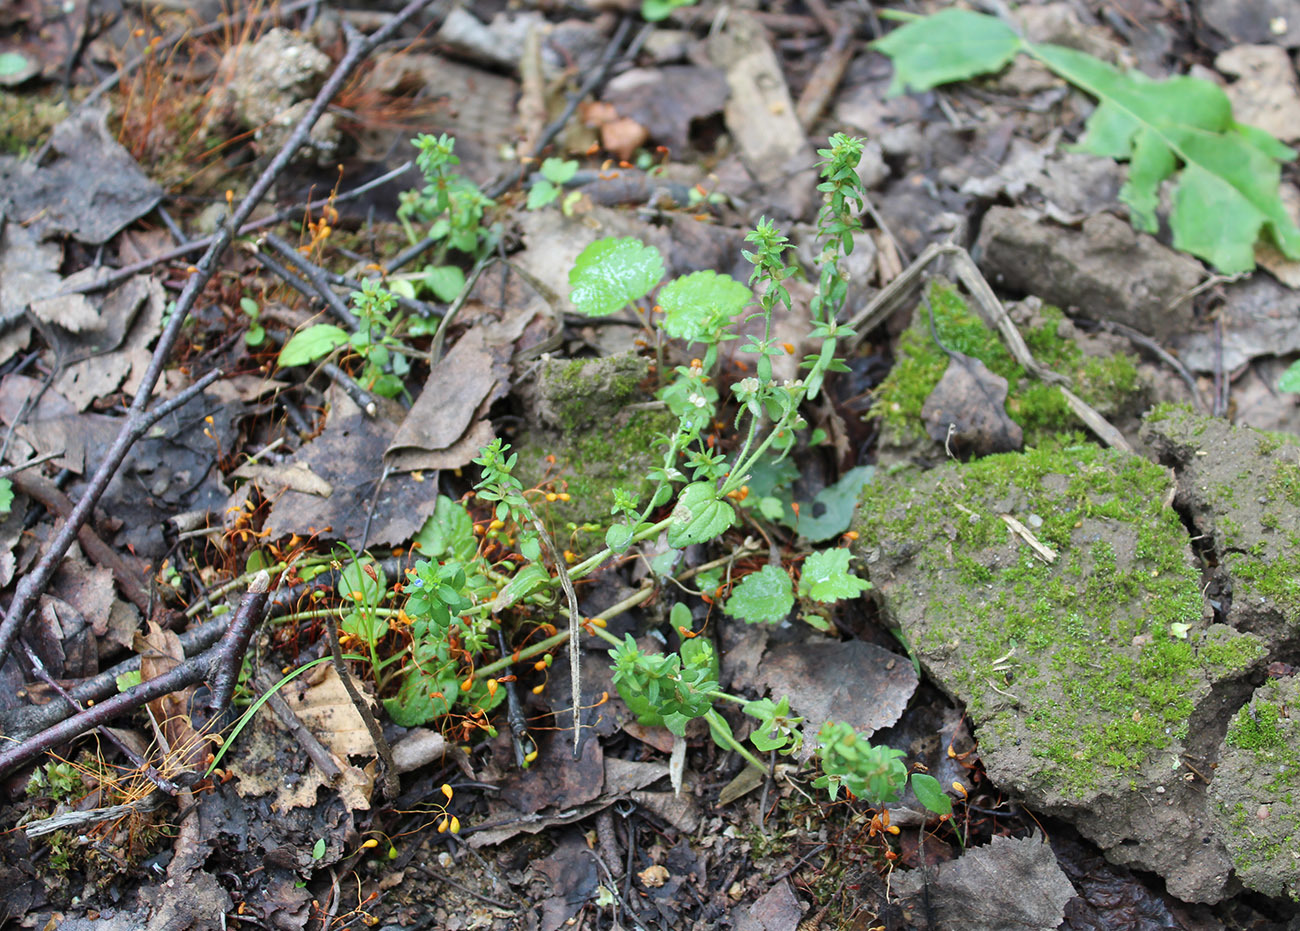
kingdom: Plantae
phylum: Tracheophyta
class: Magnoliopsida
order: Lamiales
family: Plantaginaceae
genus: Veronica
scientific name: Veronica arvensis
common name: Corn speedwell
